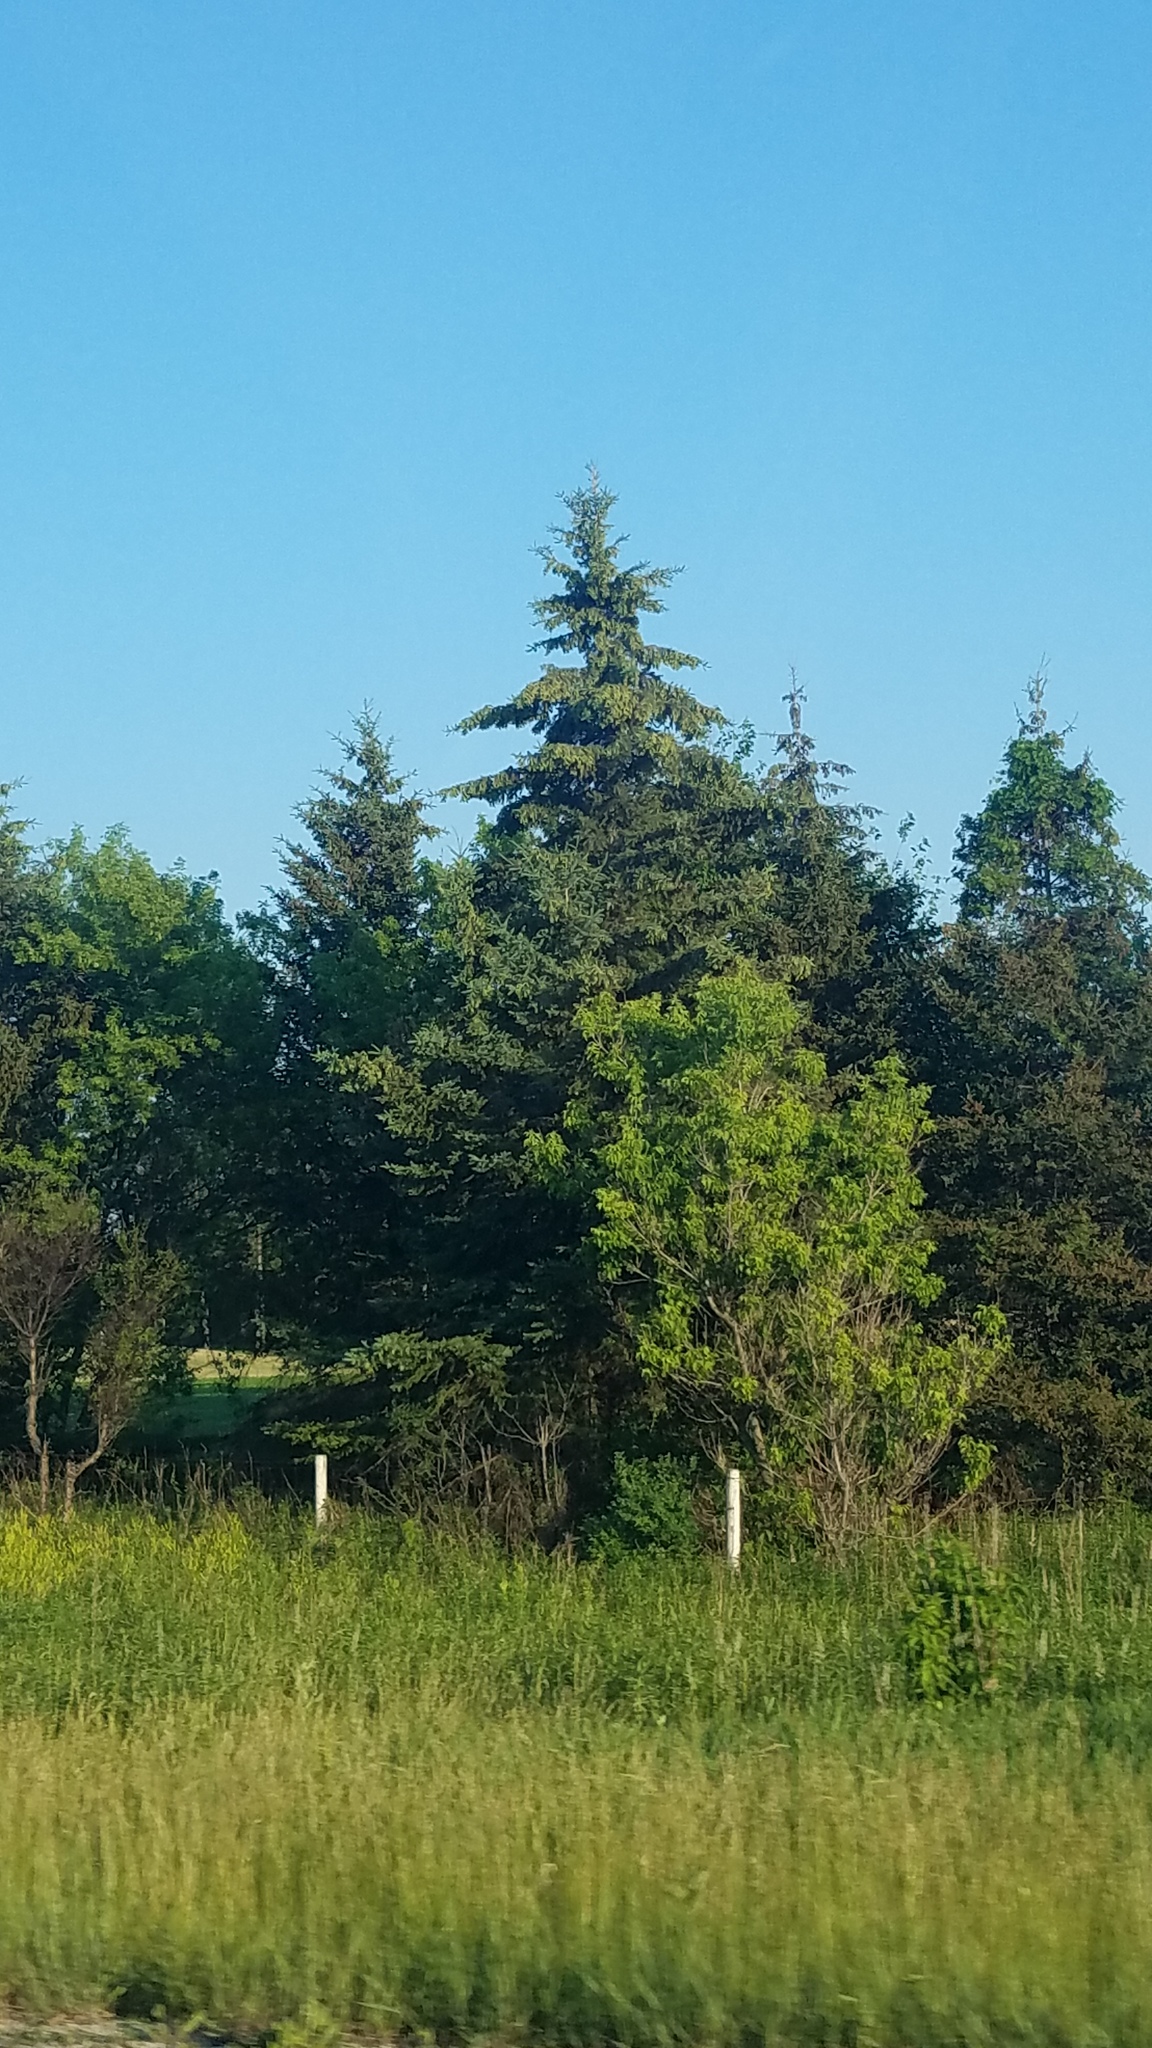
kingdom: Plantae
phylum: Tracheophyta
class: Pinopsida
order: Pinales
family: Pinaceae
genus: Picea
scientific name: Picea glauca
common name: White spruce
